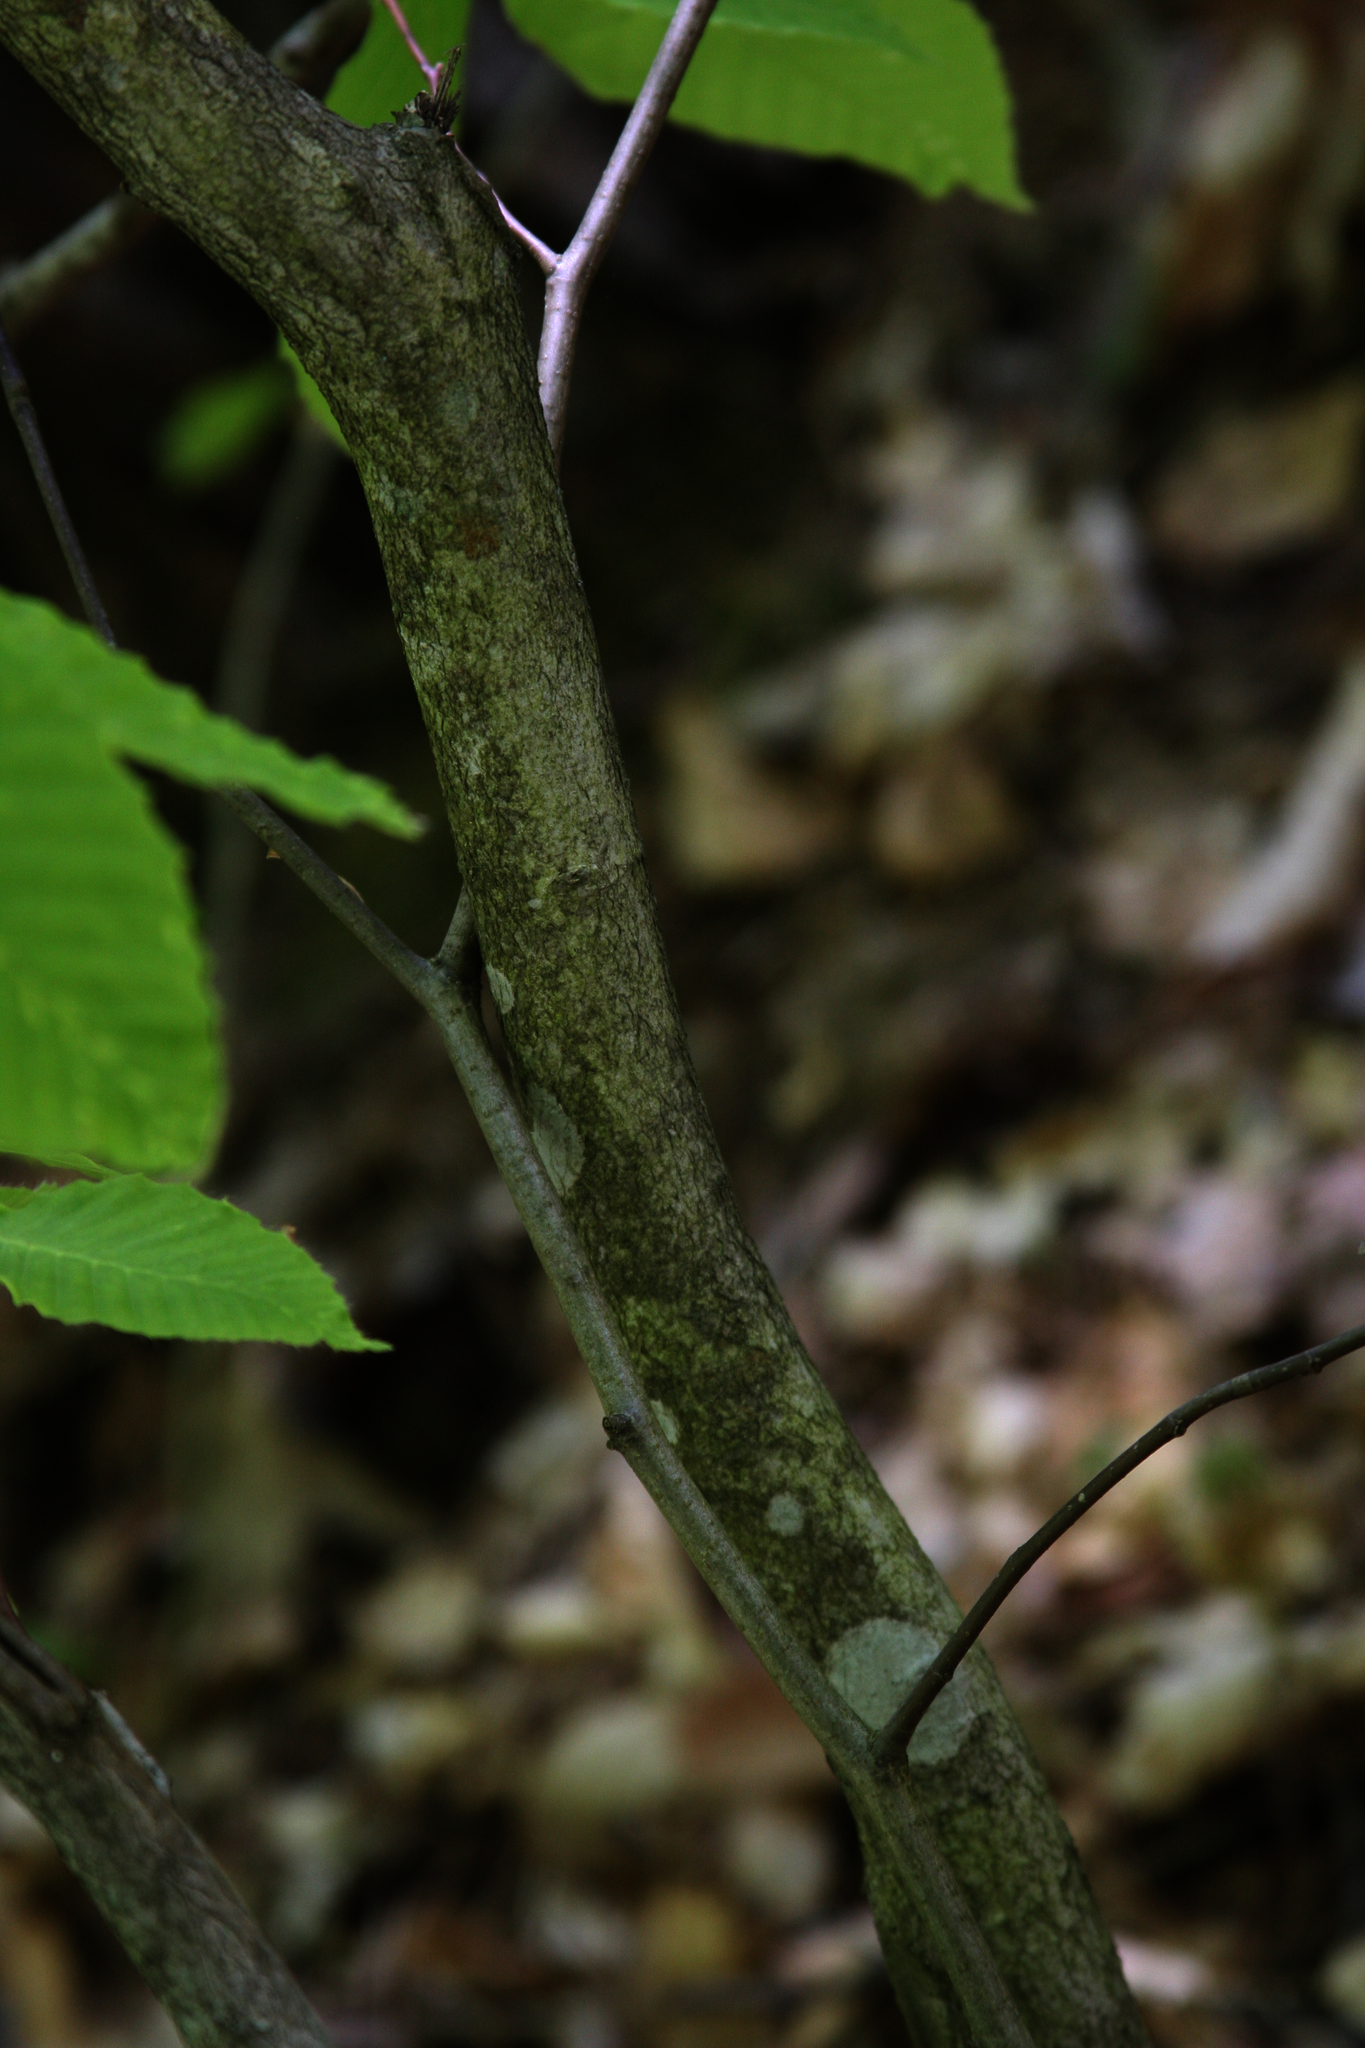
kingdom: Plantae
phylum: Tracheophyta
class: Magnoliopsida
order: Fagales
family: Fagaceae
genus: Fagus
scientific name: Fagus grandifolia
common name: American beech
